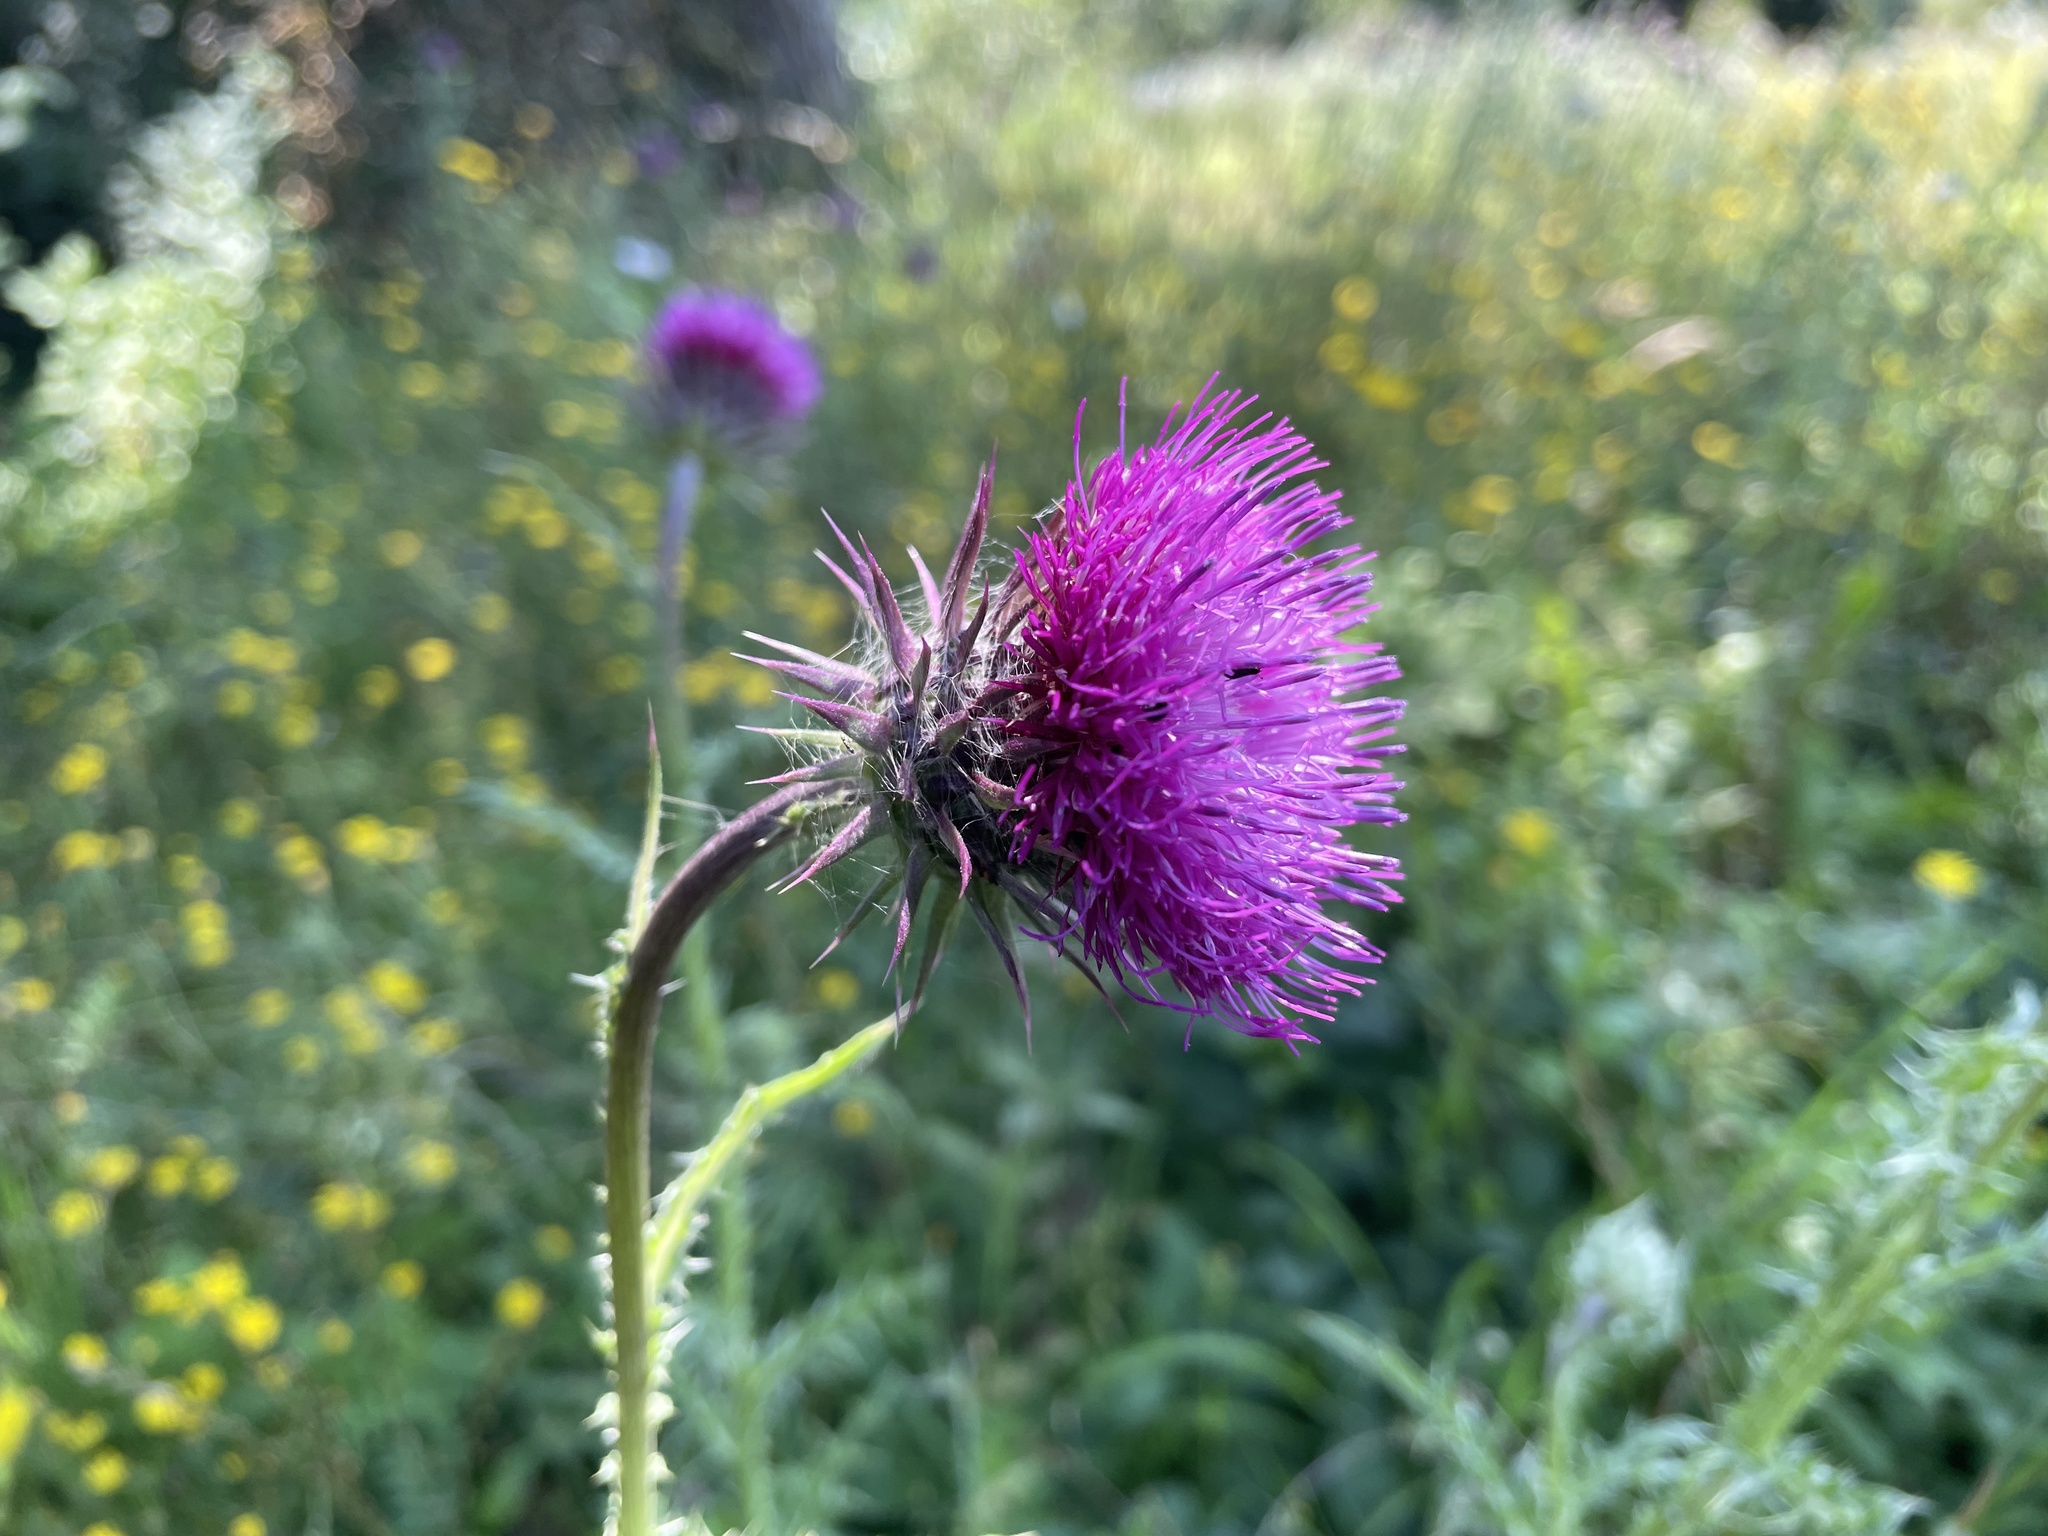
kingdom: Plantae
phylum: Tracheophyta
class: Magnoliopsida
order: Asterales
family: Asteraceae
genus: Carduus
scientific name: Carduus nutans
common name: Musk thistle
